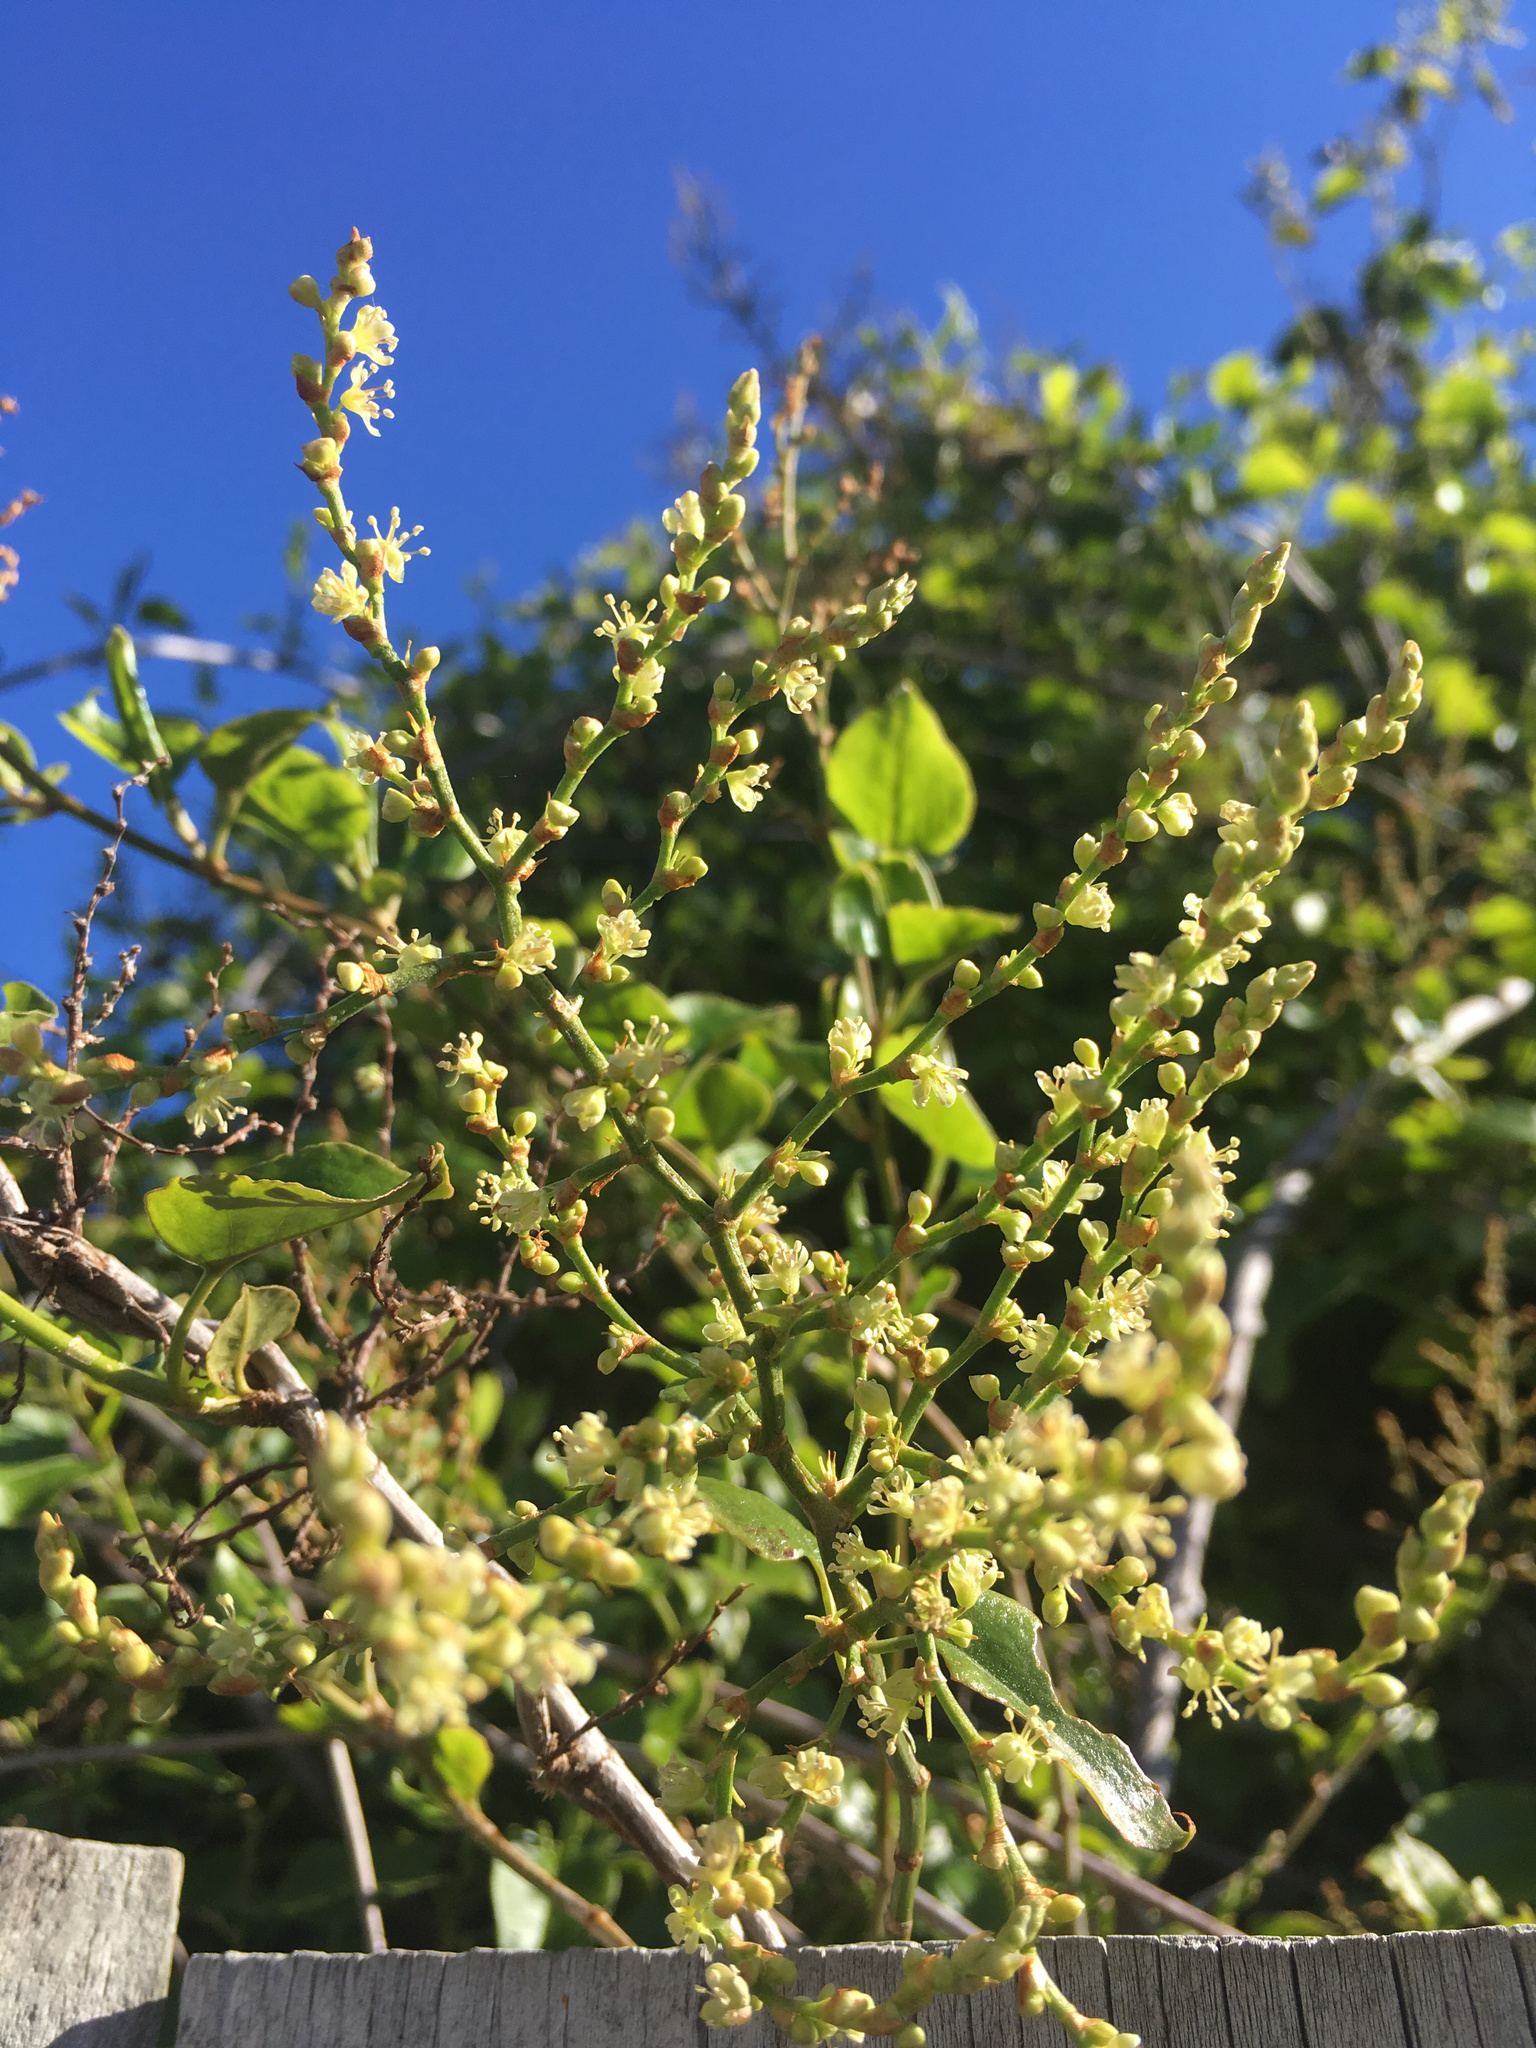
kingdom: Plantae
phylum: Tracheophyta
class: Magnoliopsida
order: Caryophyllales
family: Polygonaceae
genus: Muehlenbeckia
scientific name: Muehlenbeckia australis
